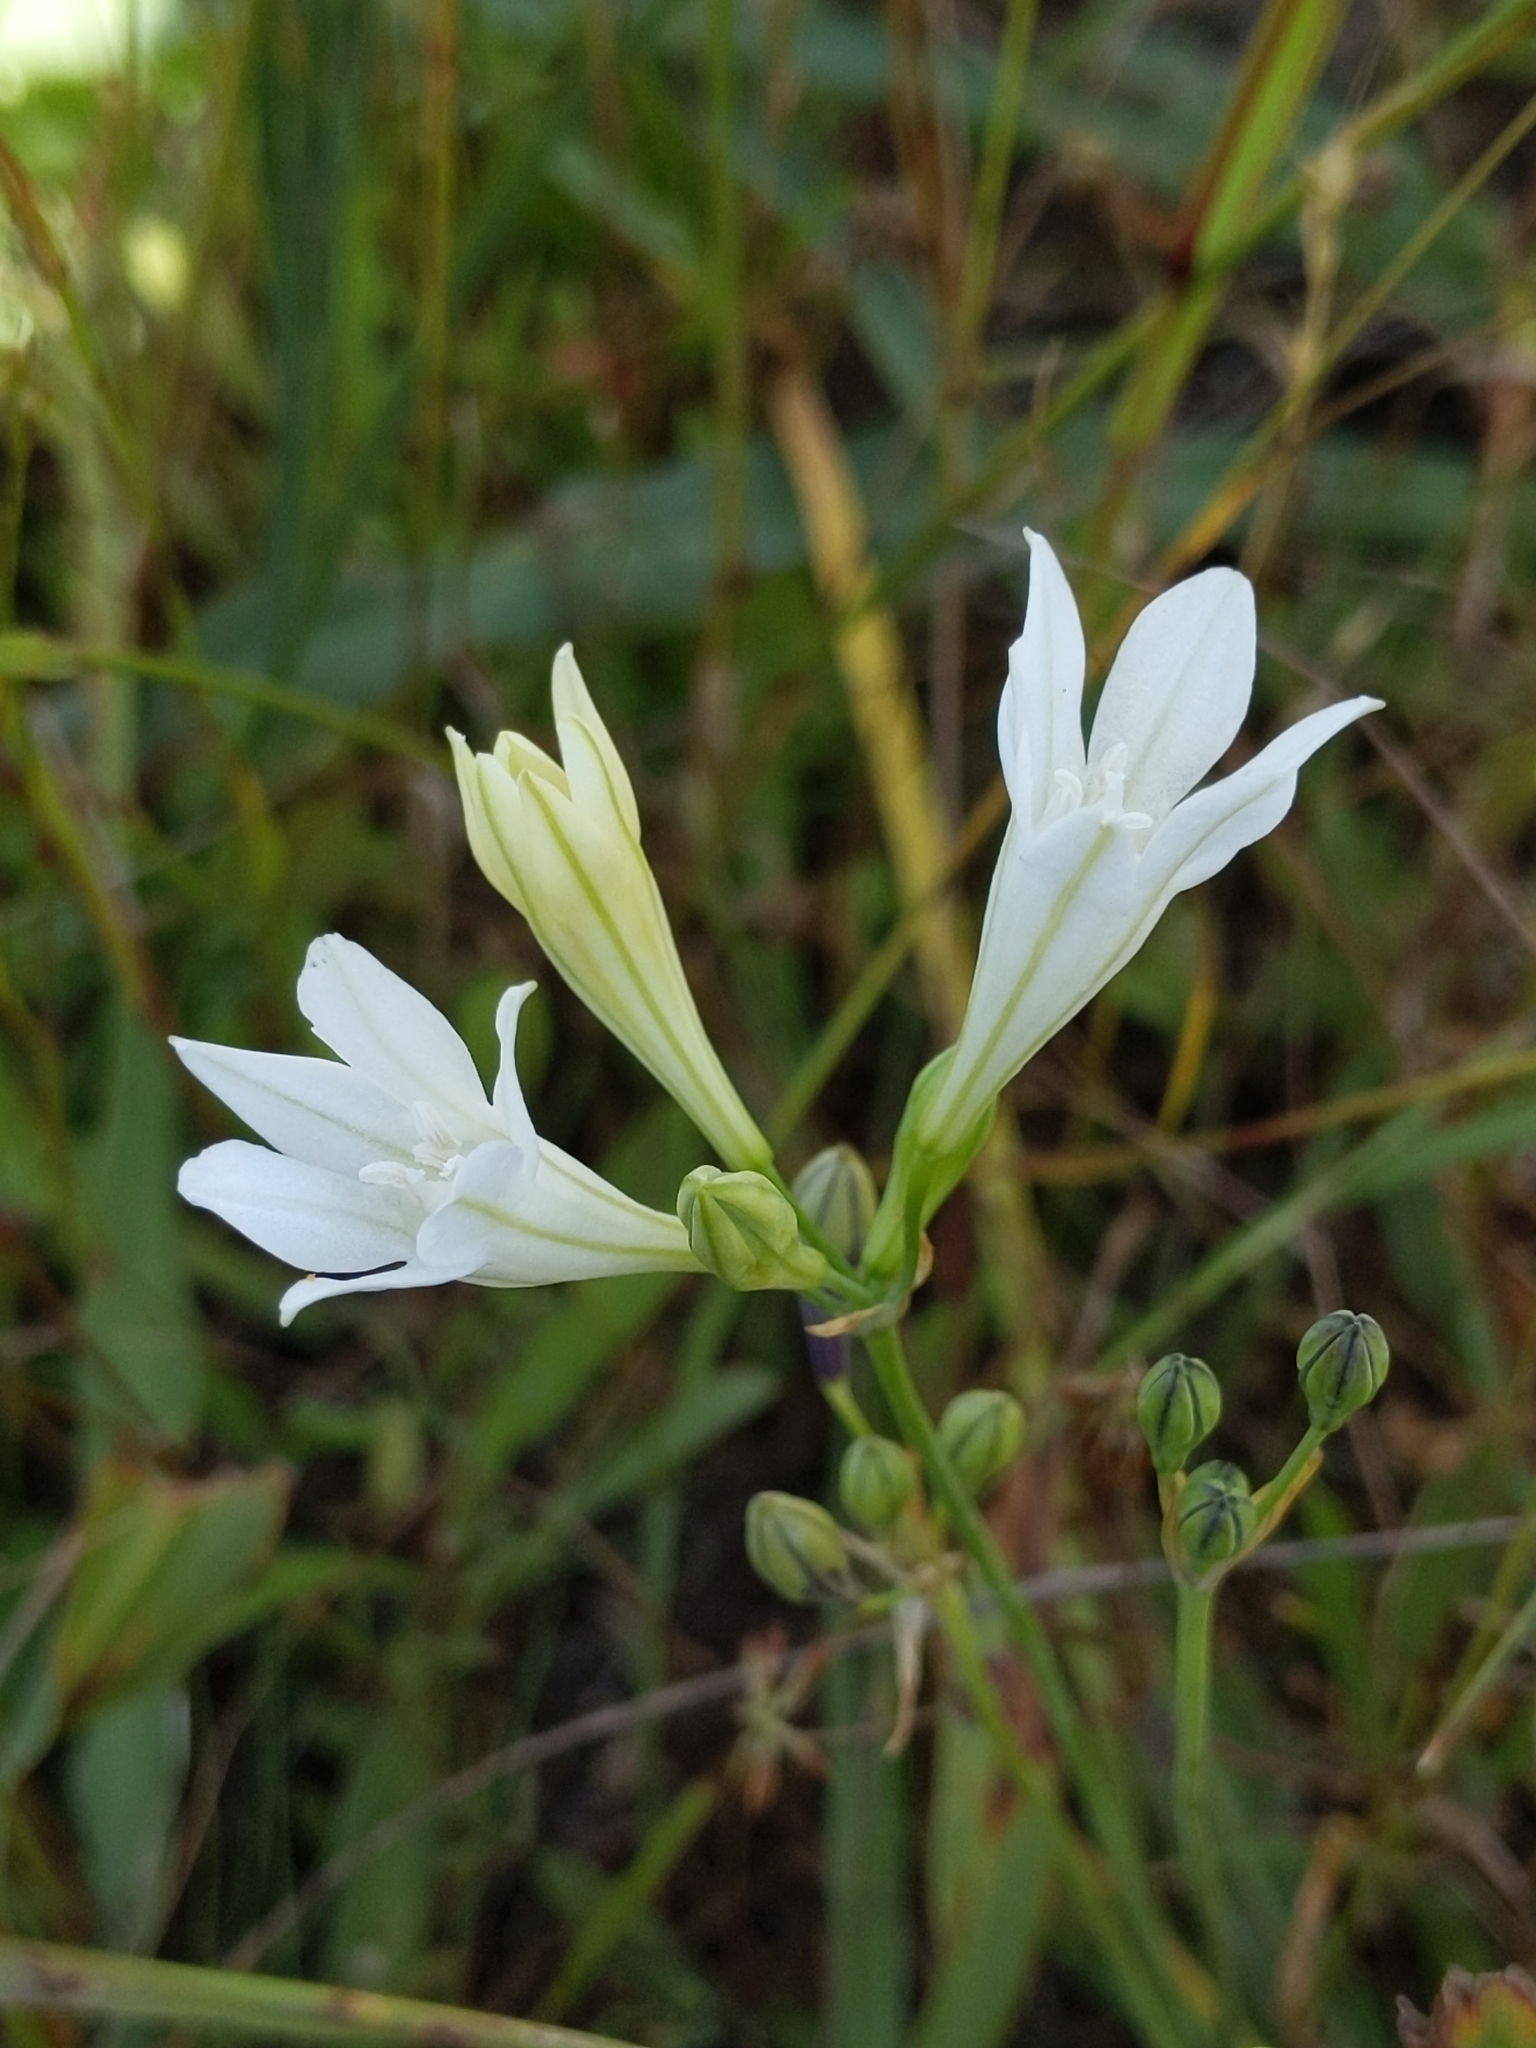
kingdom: Plantae
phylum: Tracheophyta
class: Liliopsida
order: Asparagales
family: Asparagaceae
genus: Triteleia
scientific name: Triteleia laxa
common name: Triplet-lily
